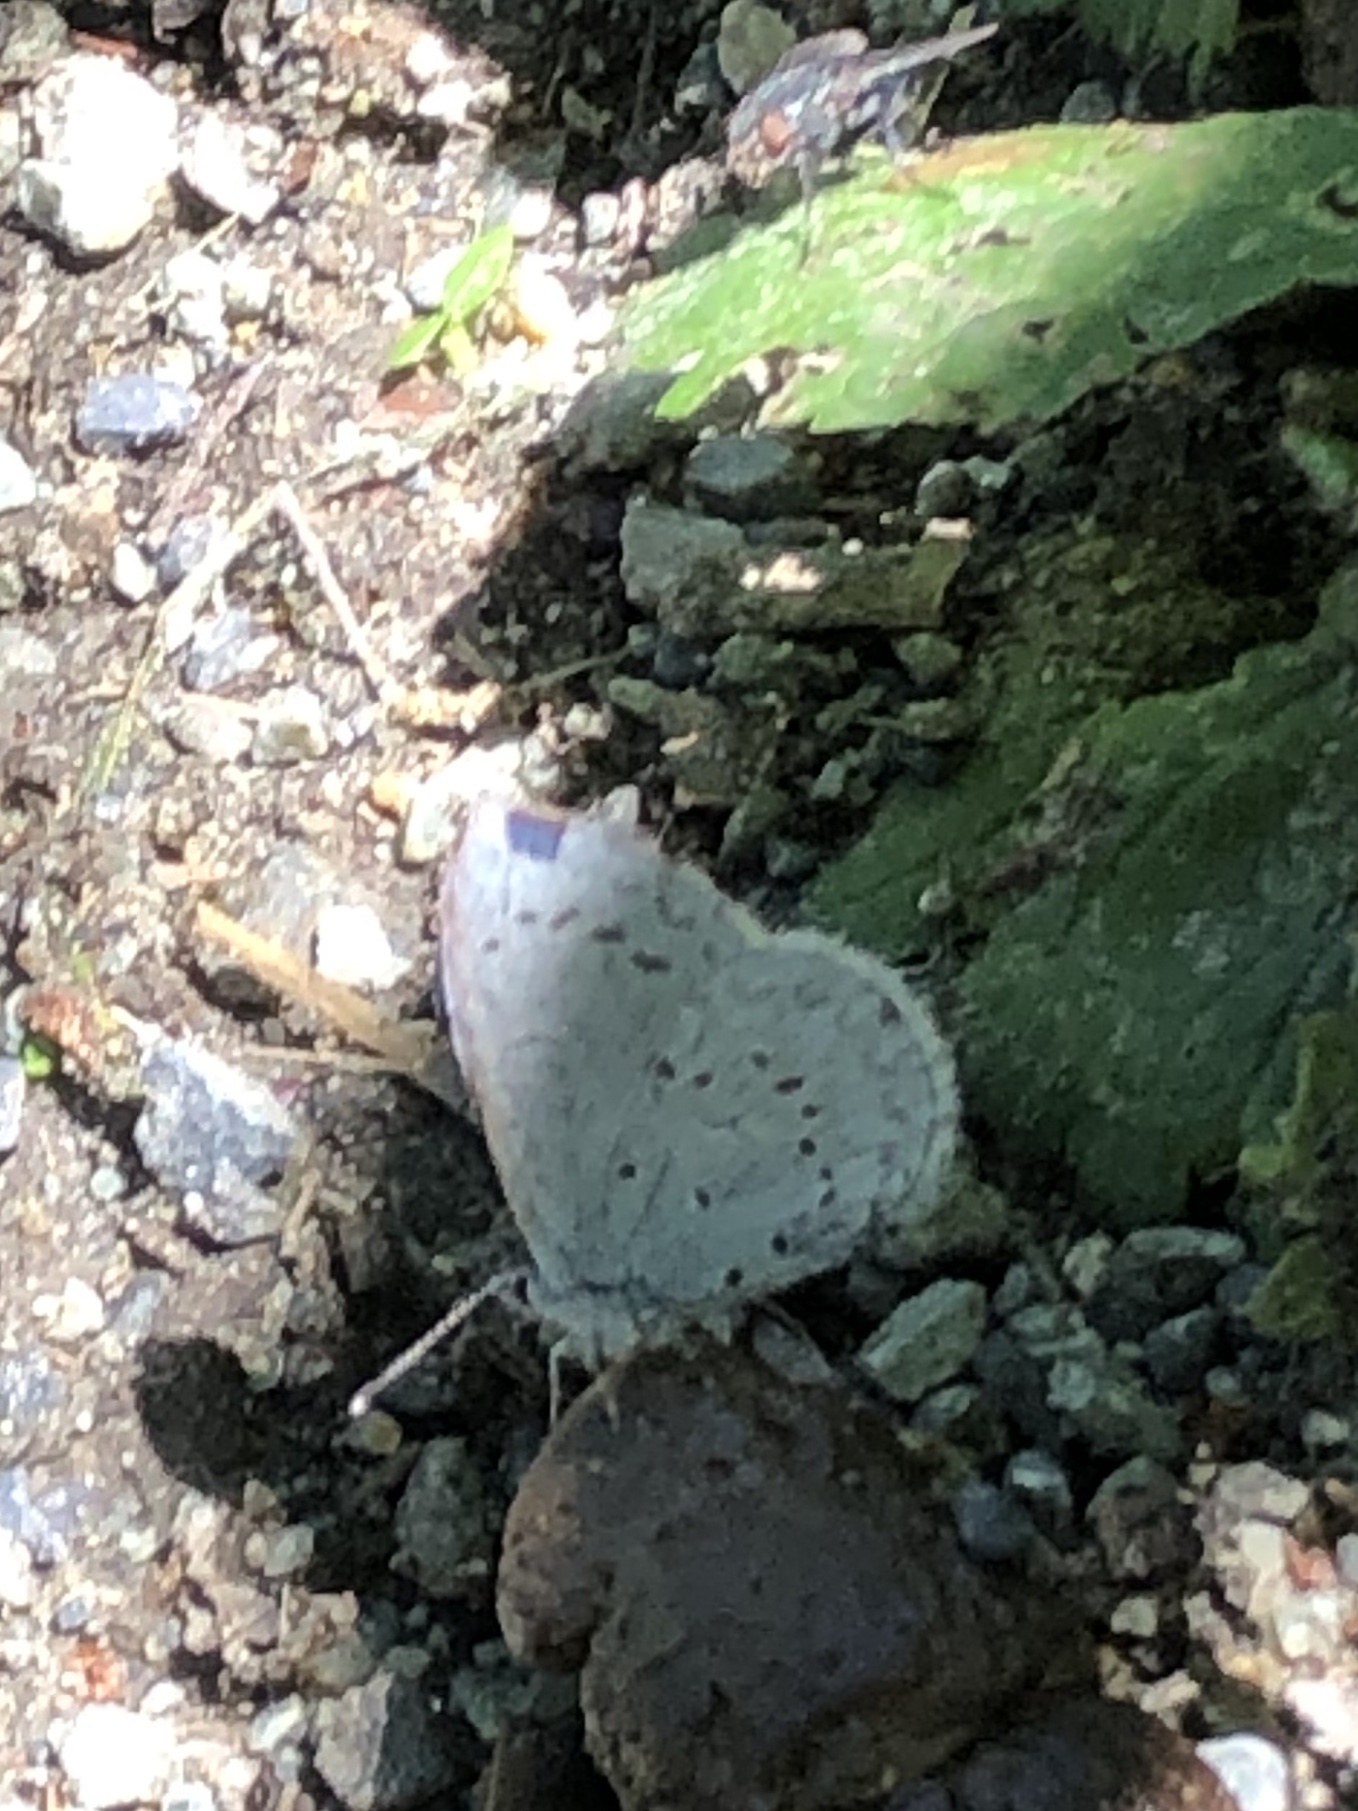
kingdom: Animalia
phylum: Arthropoda
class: Insecta
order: Lepidoptera
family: Lycaenidae
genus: Celastrina
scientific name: Celastrina ladon
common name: Spring azure
